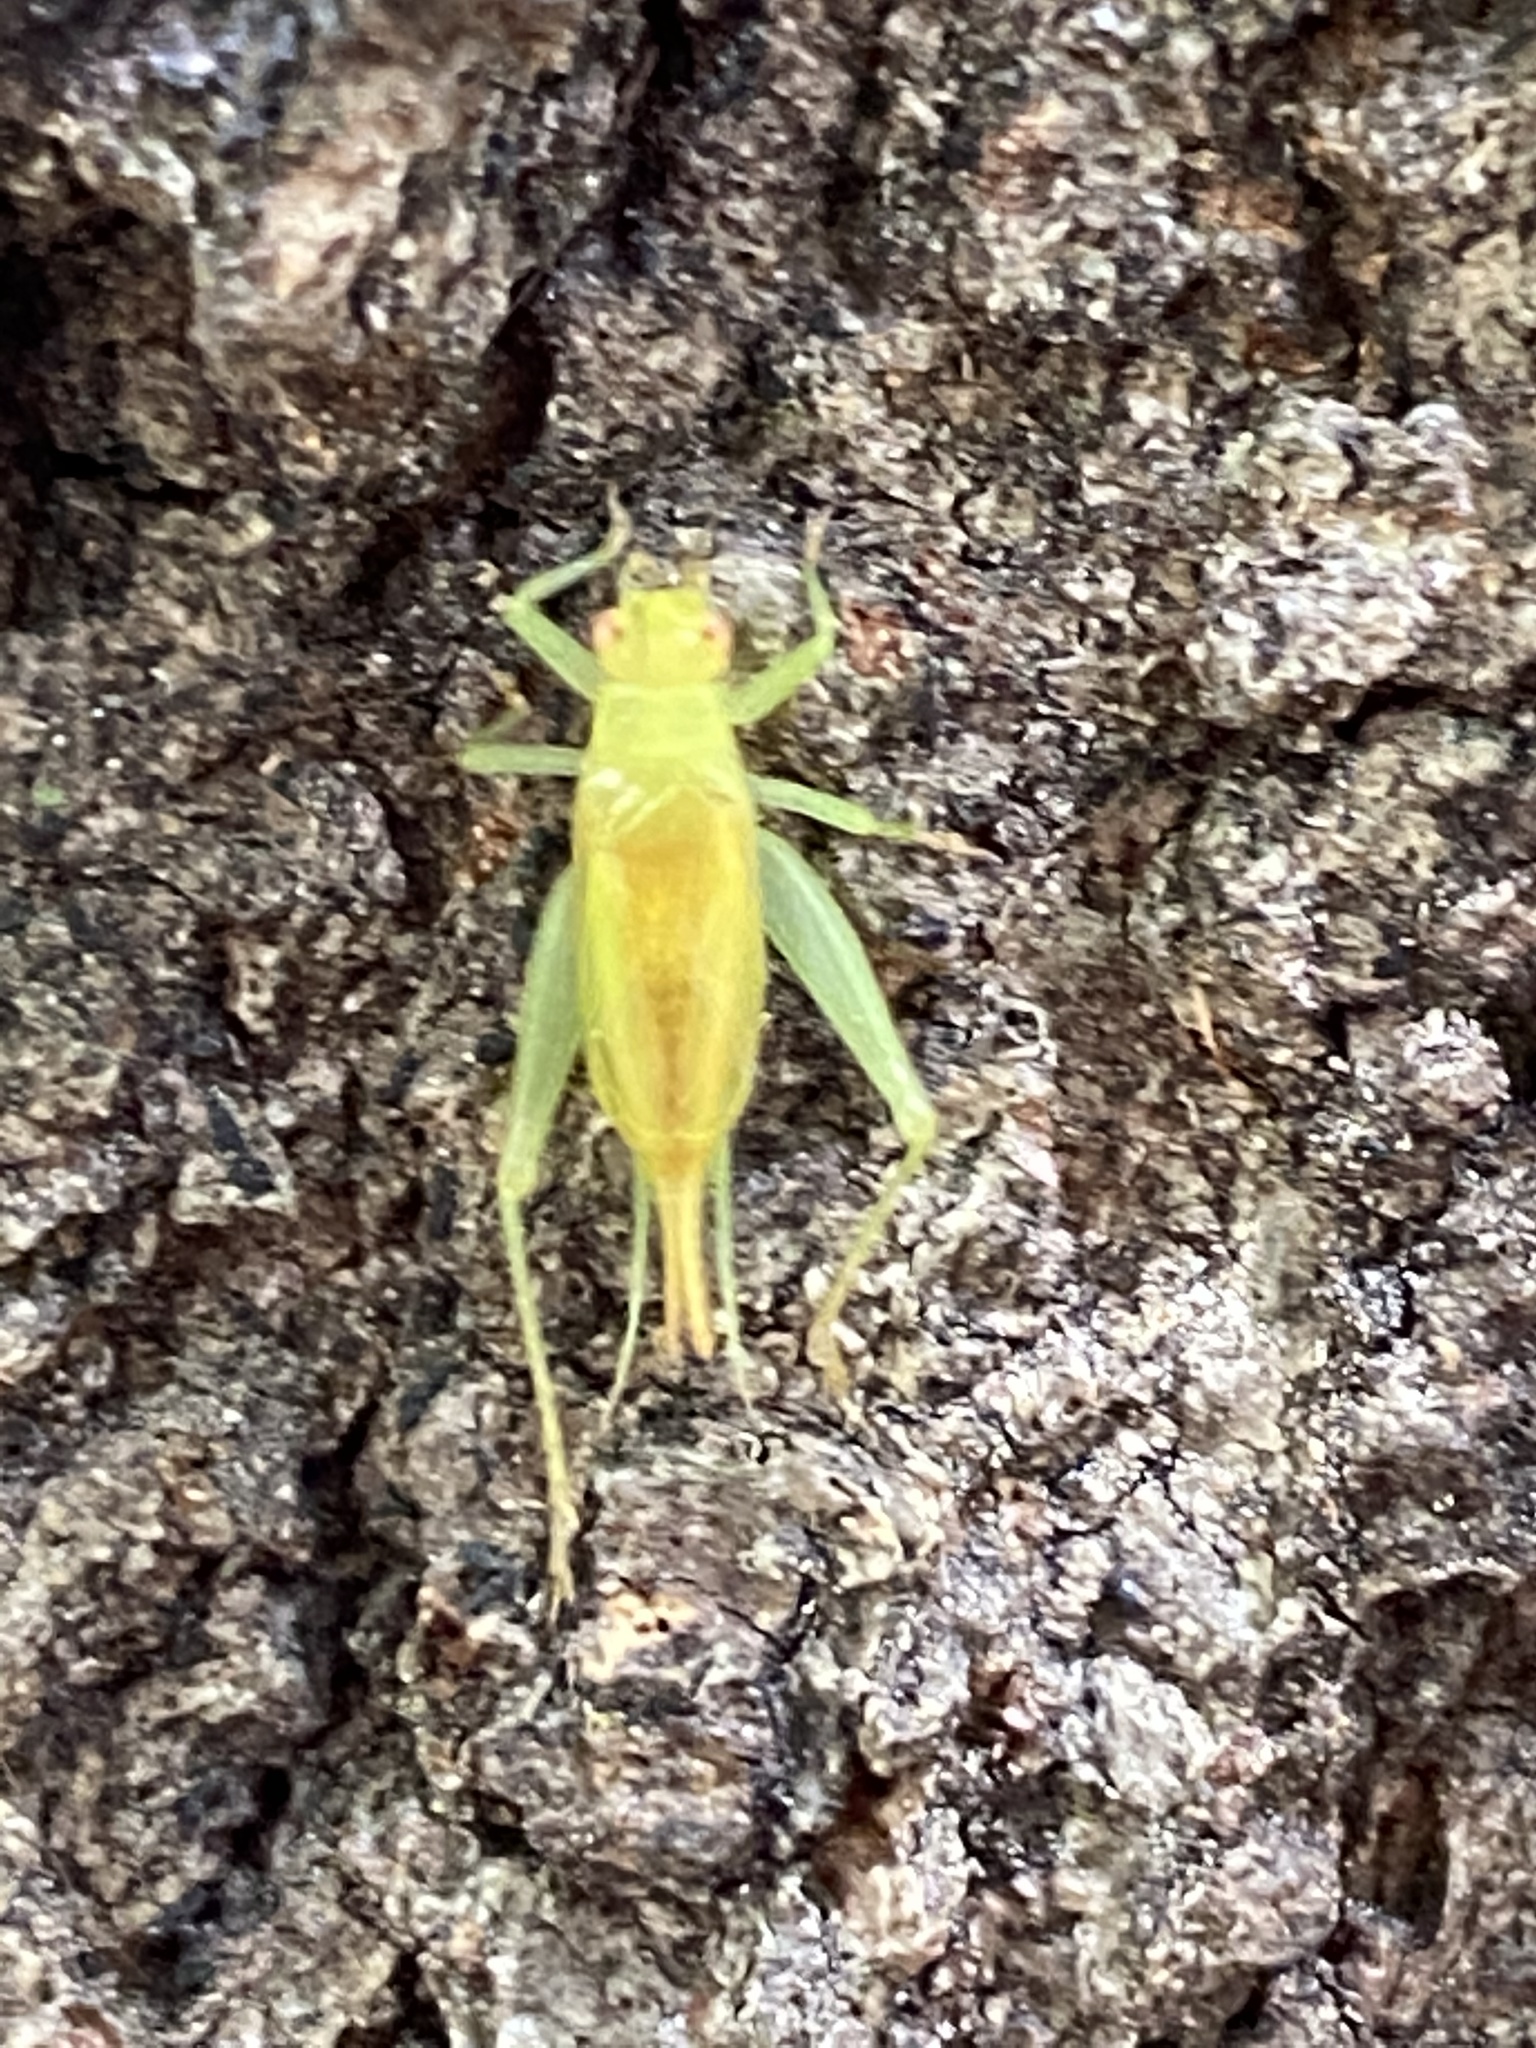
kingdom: Animalia
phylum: Arthropoda
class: Insecta
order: Orthoptera
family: Trigonidiidae
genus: Cyrtoxipha
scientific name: Cyrtoxipha columbiana
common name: Columbian trig
